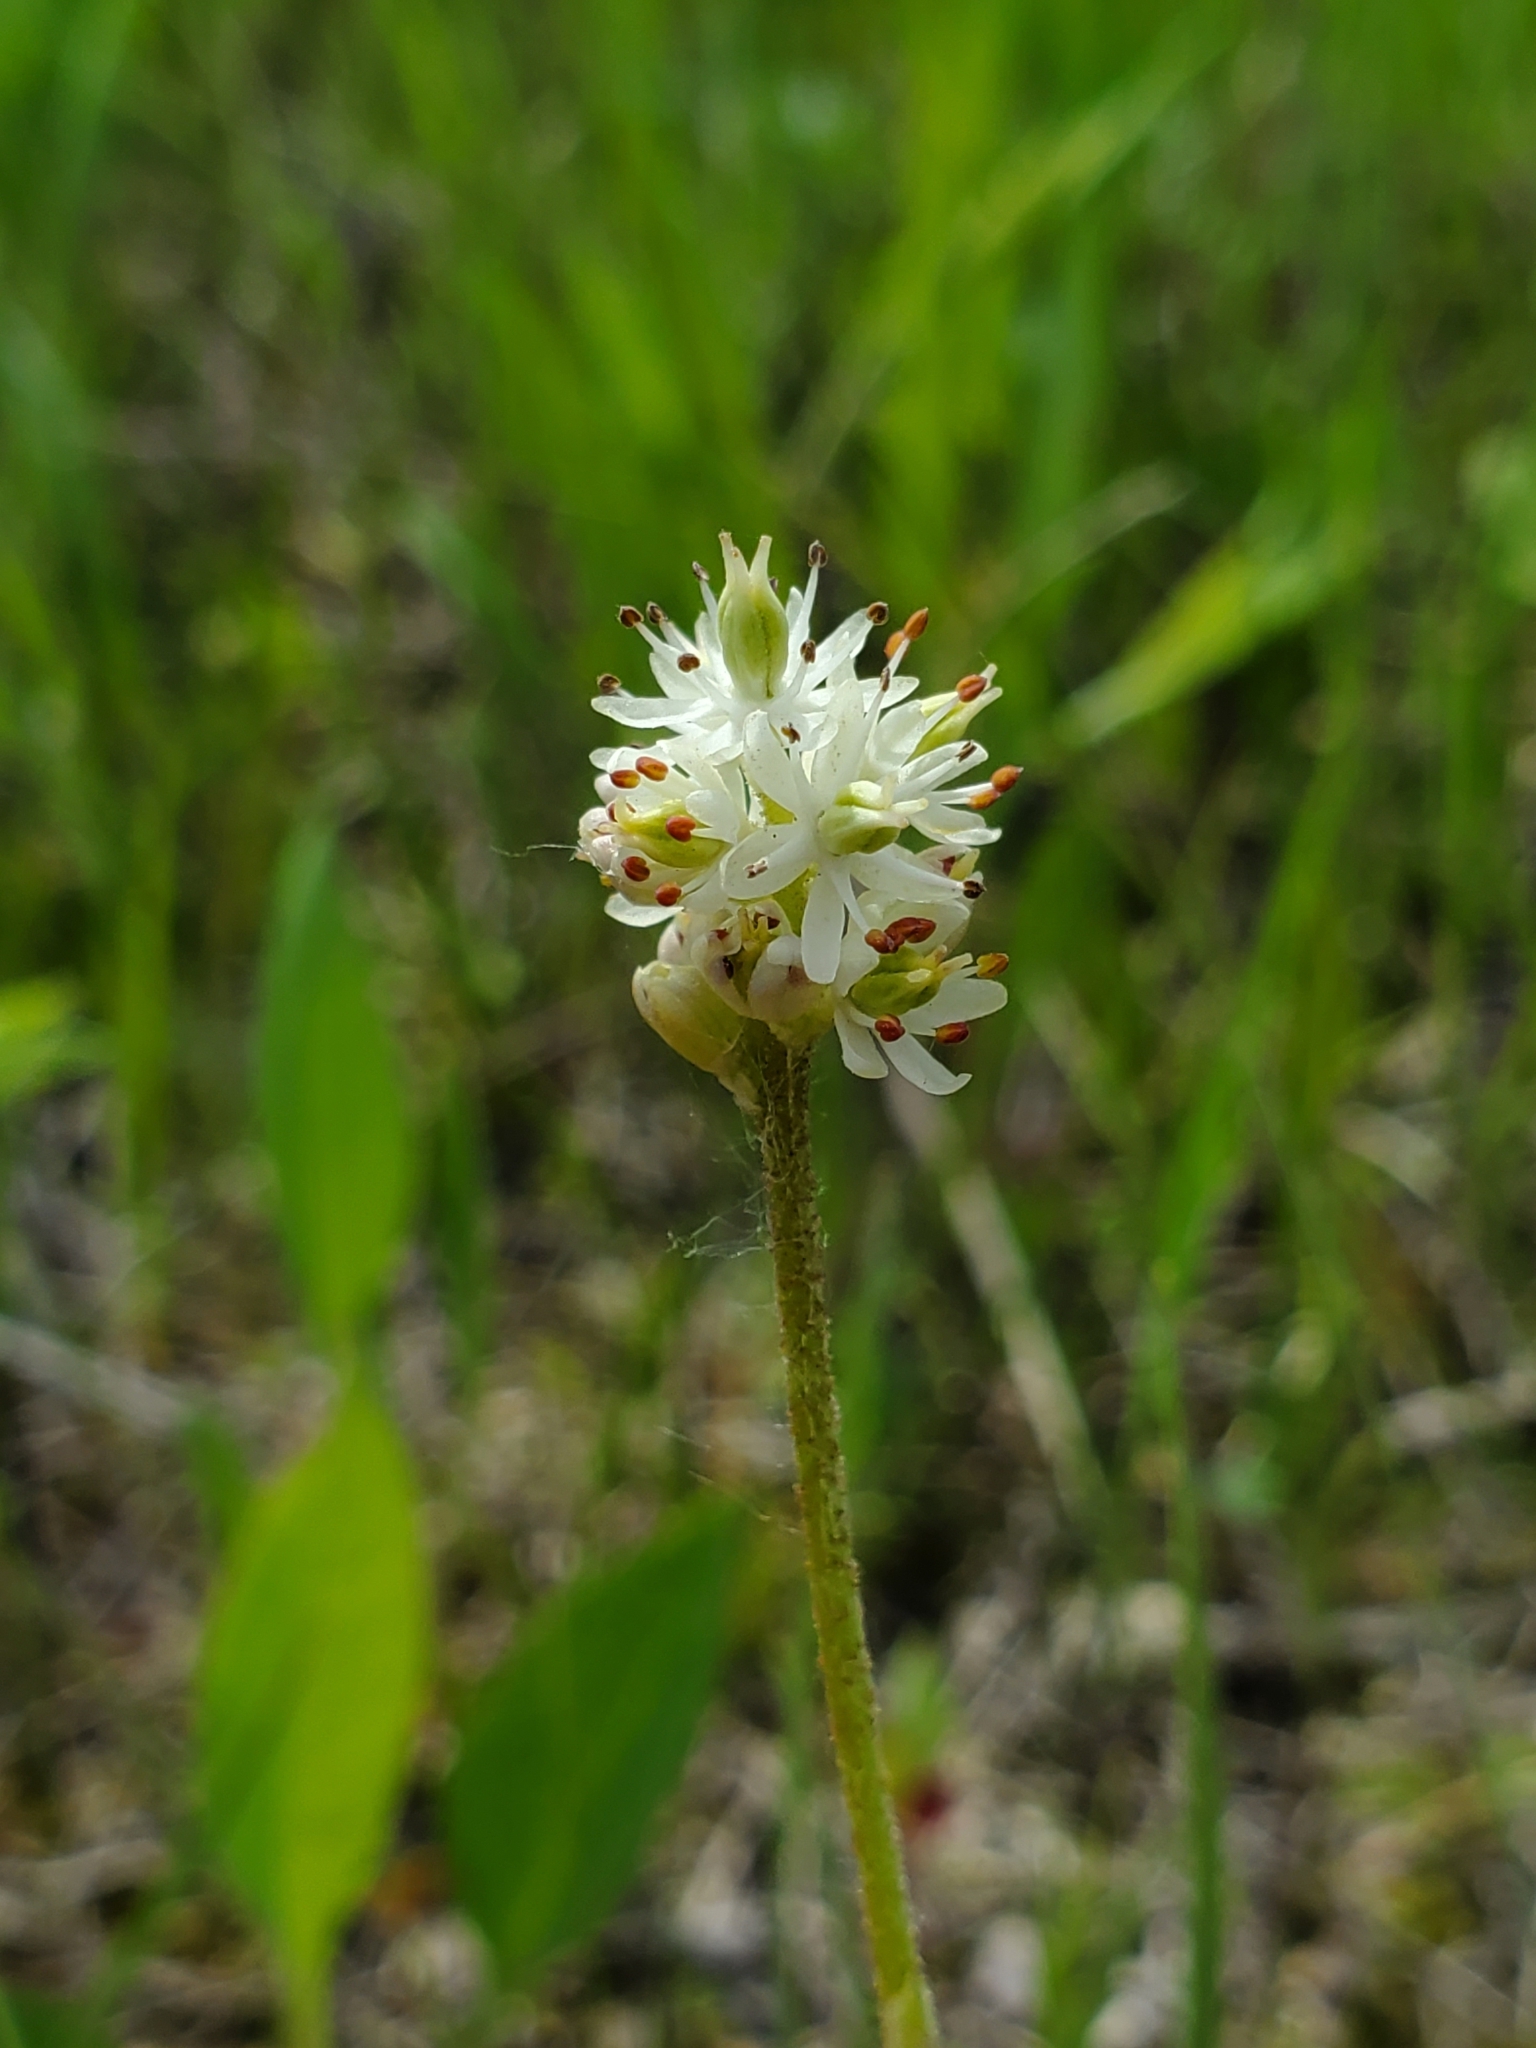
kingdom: Plantae
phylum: Tracheophyta
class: Liliopsida
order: Alismatales
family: Tofieldiaceae
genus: Triantha
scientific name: Triantha glutinosa
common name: Glutinous tofieldia
